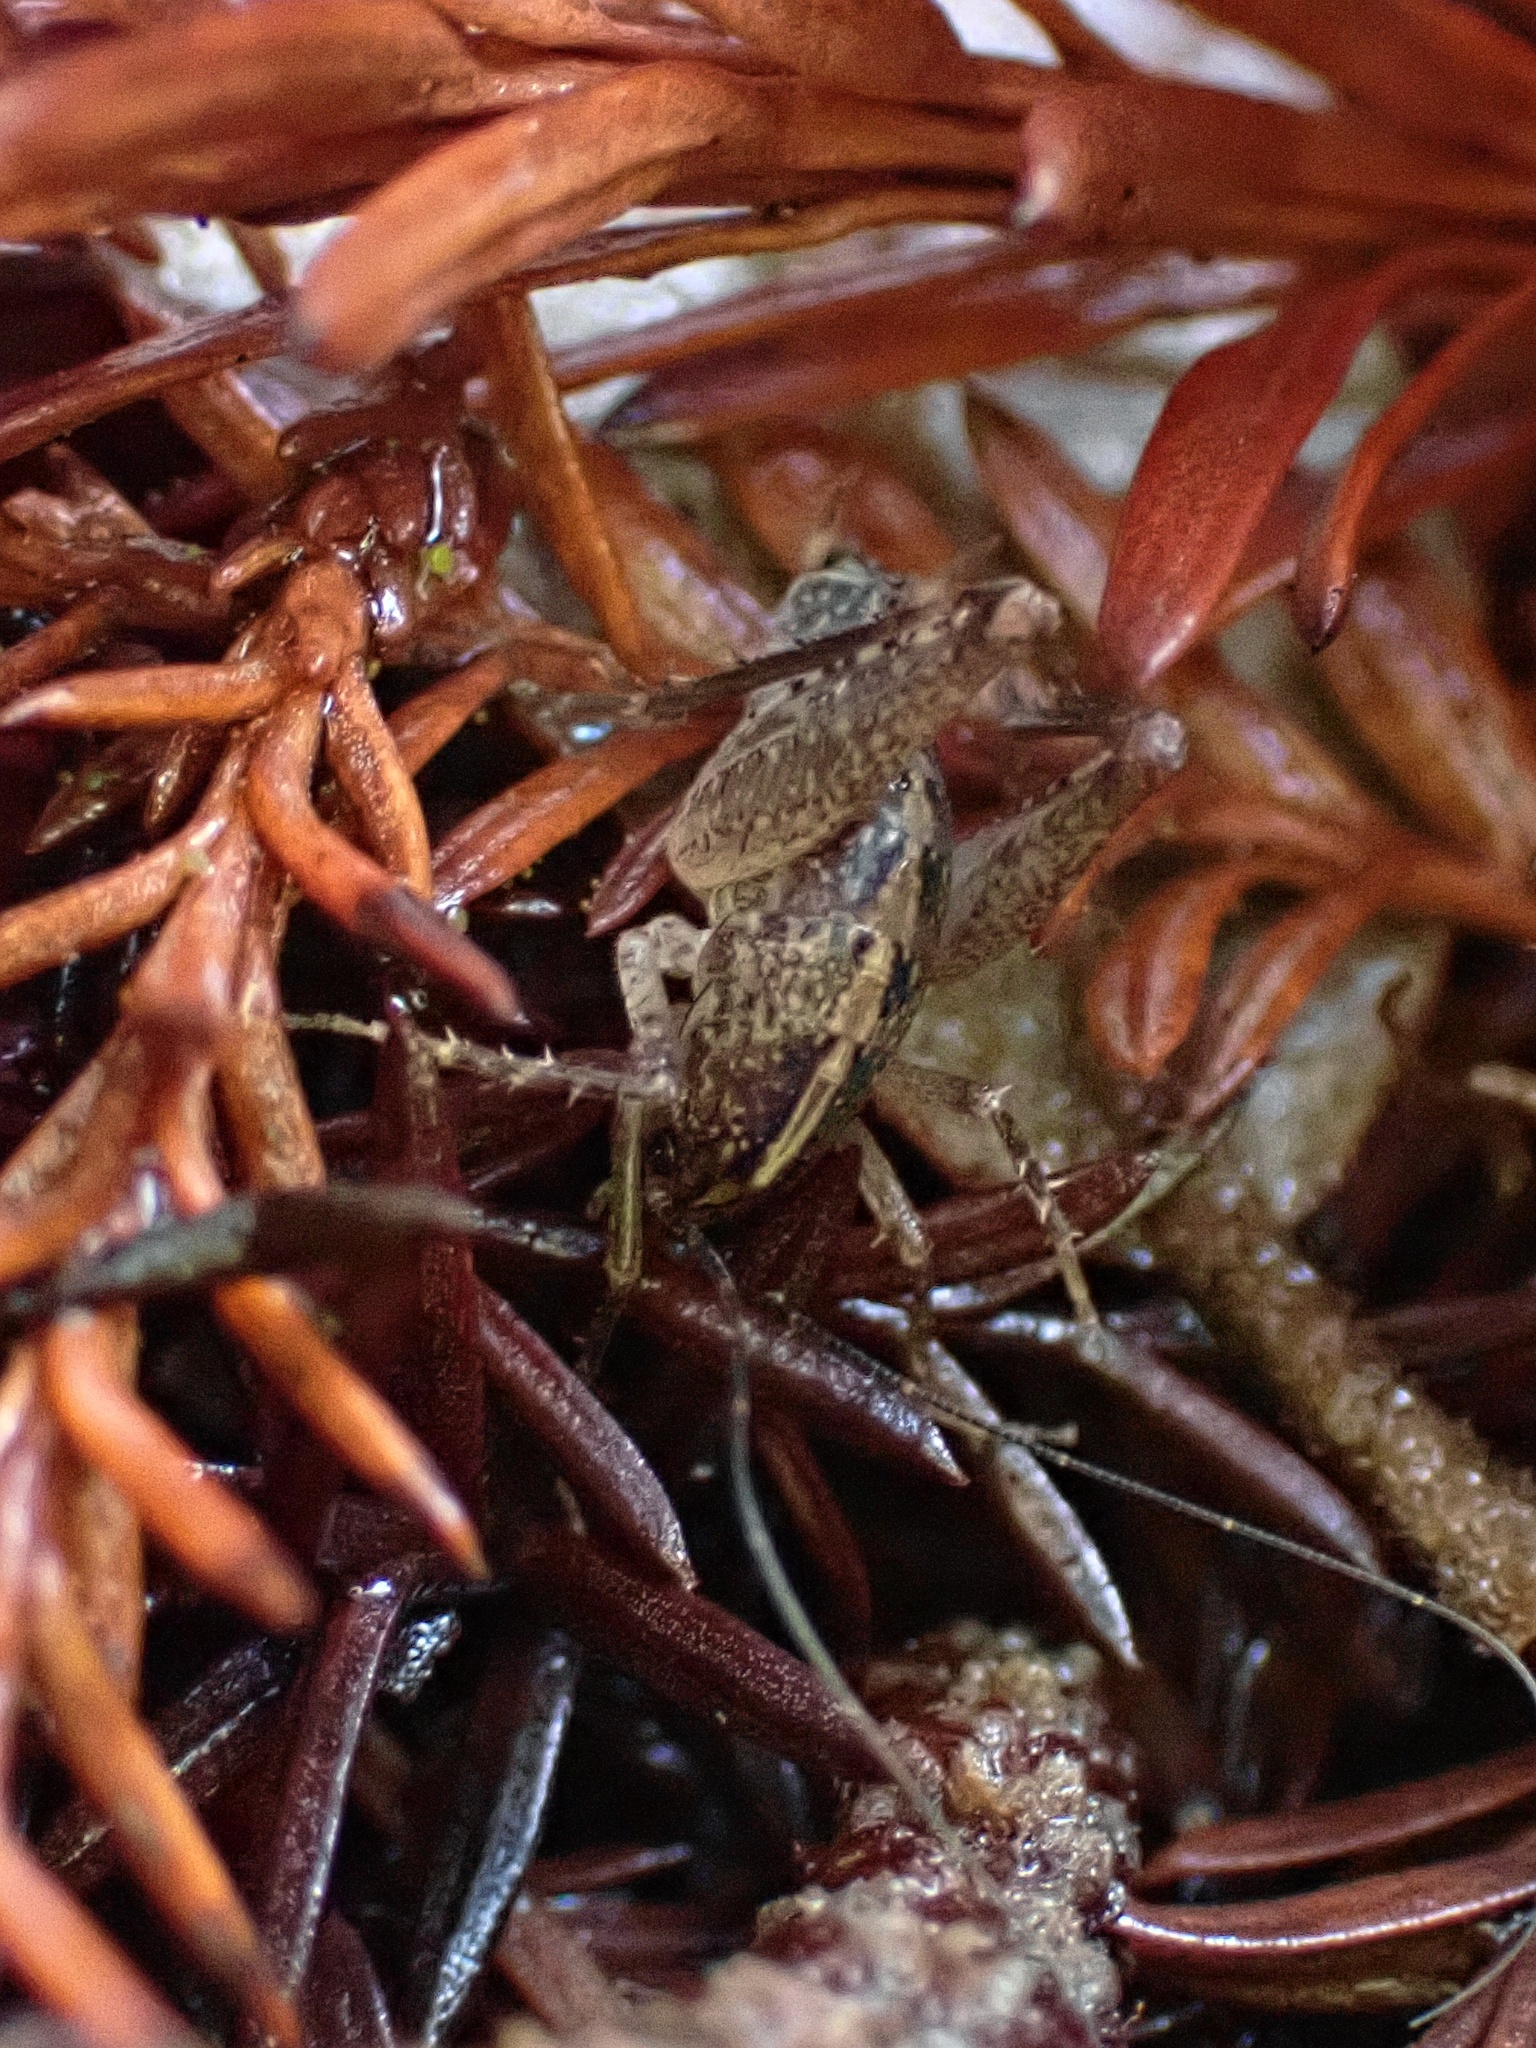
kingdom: Animalia
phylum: Arthropoda
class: Insecta
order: Orthoptera
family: Rhaphidophoridae
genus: Pristoceuthophilus
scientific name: Pristoceuthophilus
